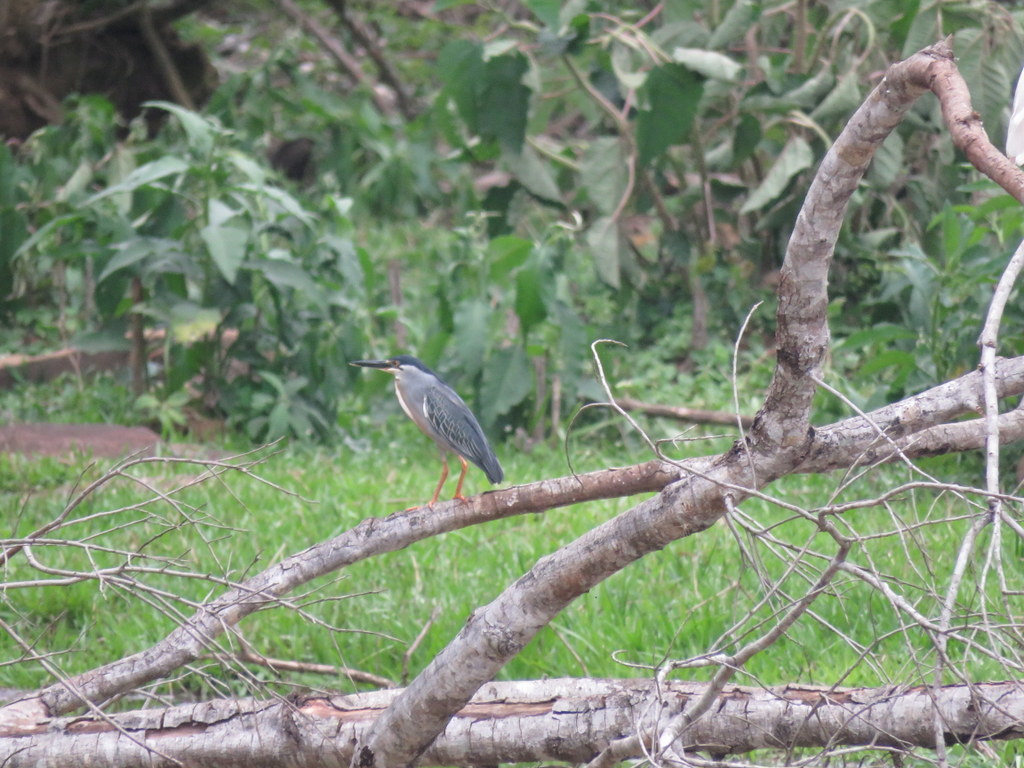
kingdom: Animalia
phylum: Chordata
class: Aves
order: Pelecaniformes
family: Ardeidae
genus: Butorides
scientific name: Butorides striata
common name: Striated heron
